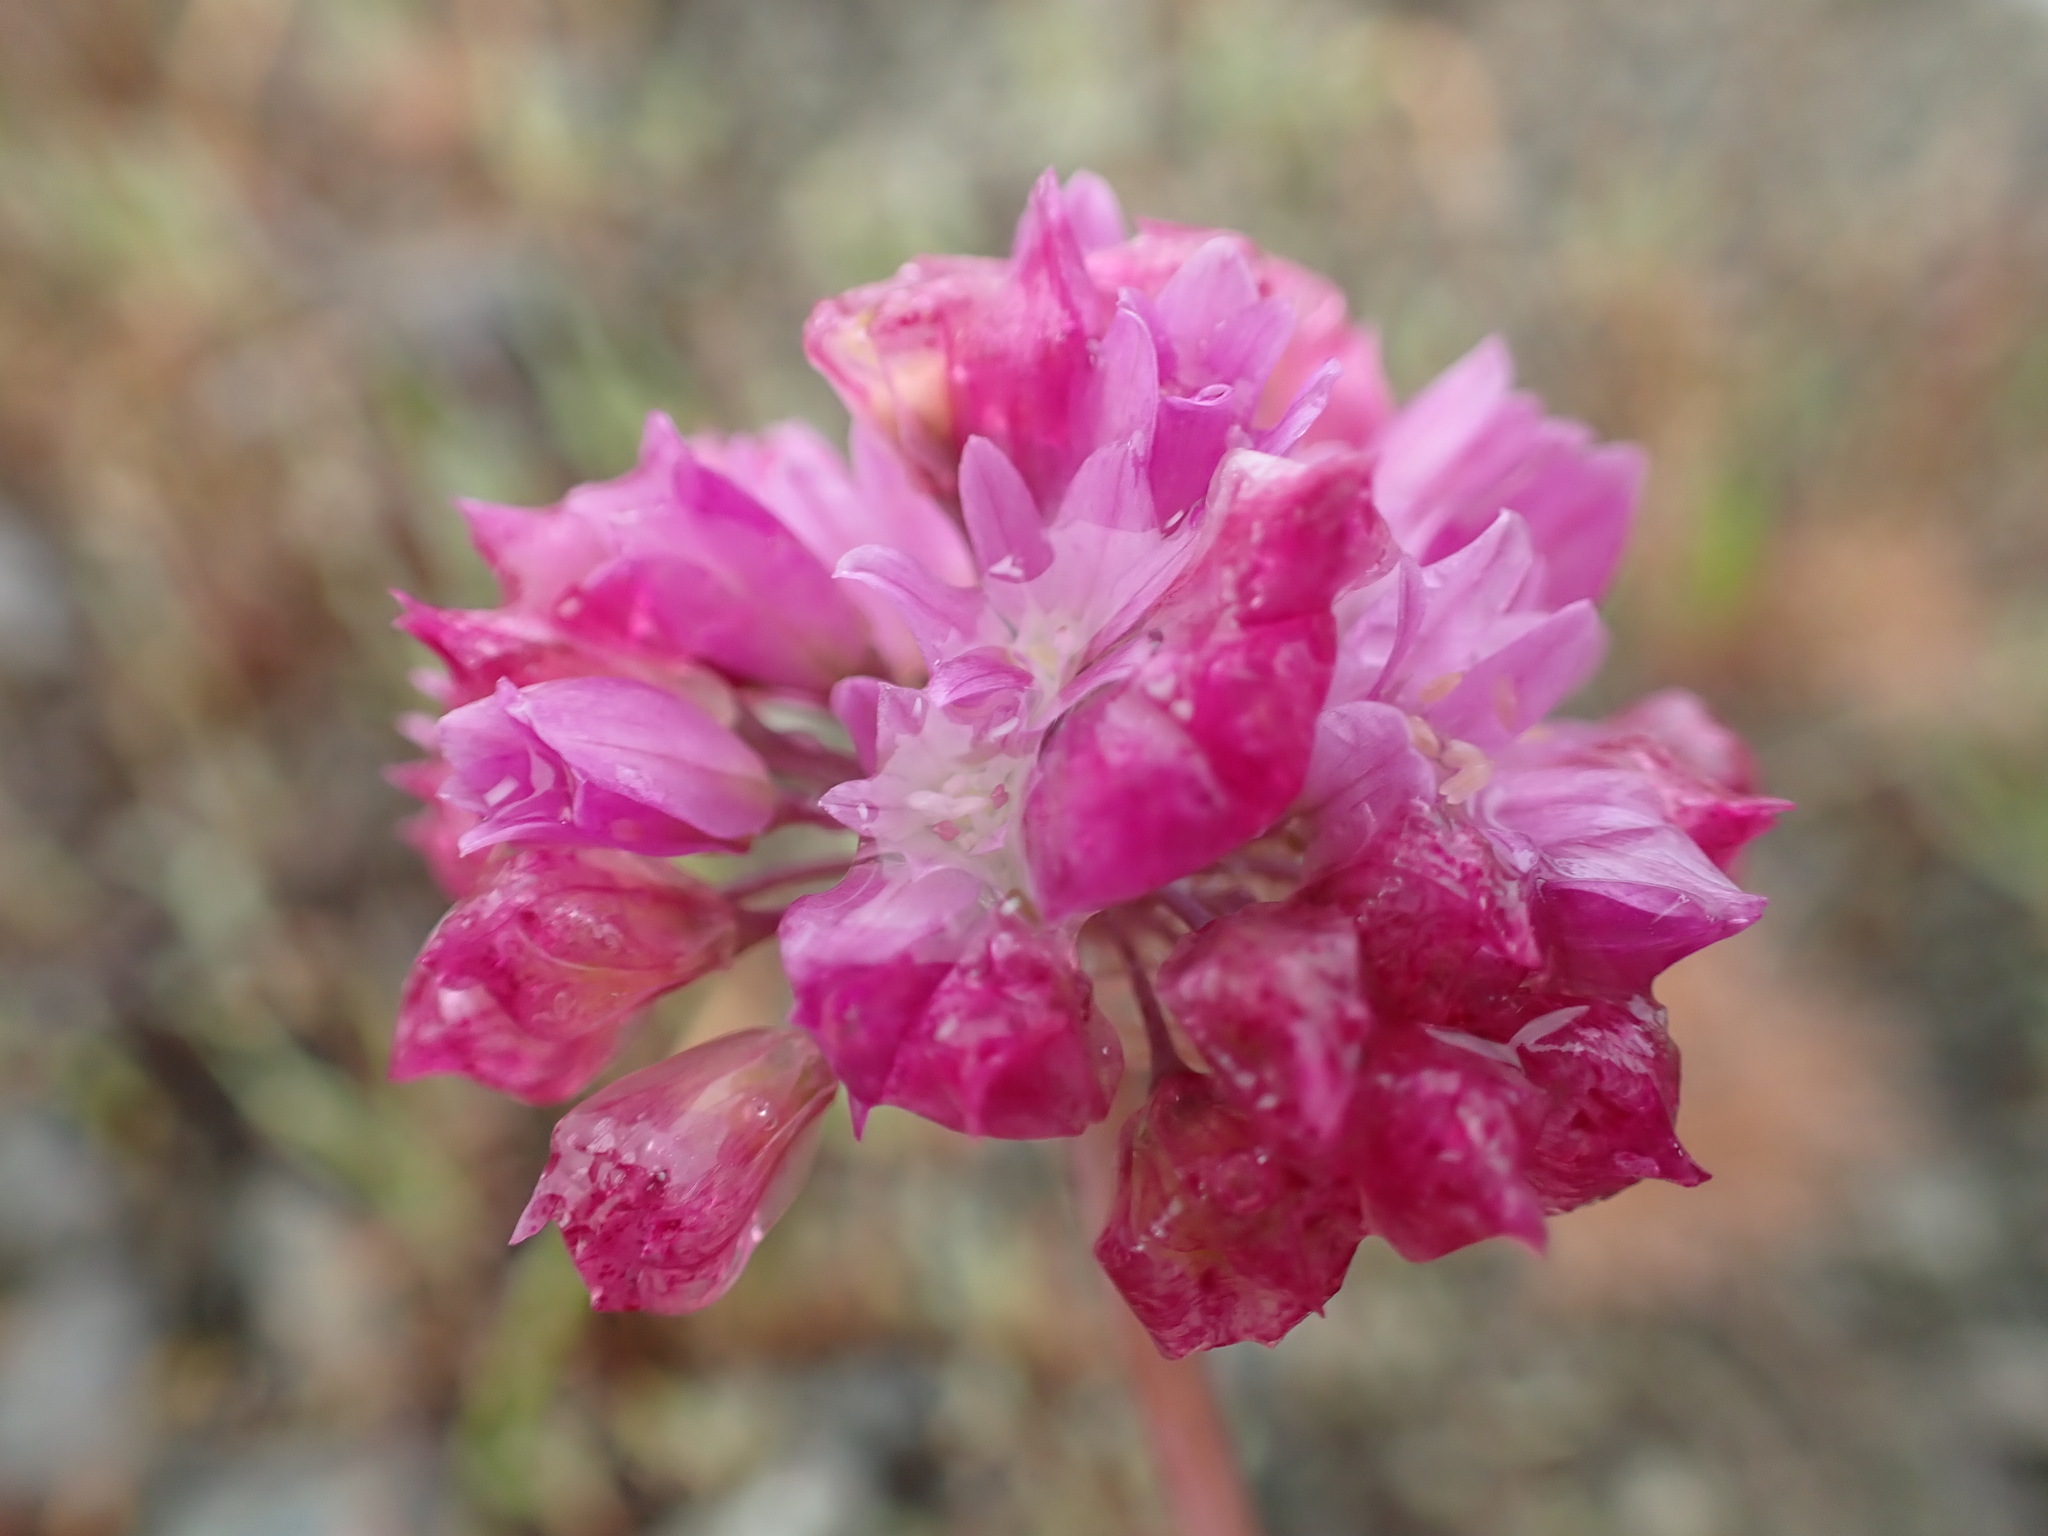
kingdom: Plantae
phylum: Tracheophyta
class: Liliopsida
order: Asparagales
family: Amaryllidaceae
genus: Allium
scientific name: Allium serra
